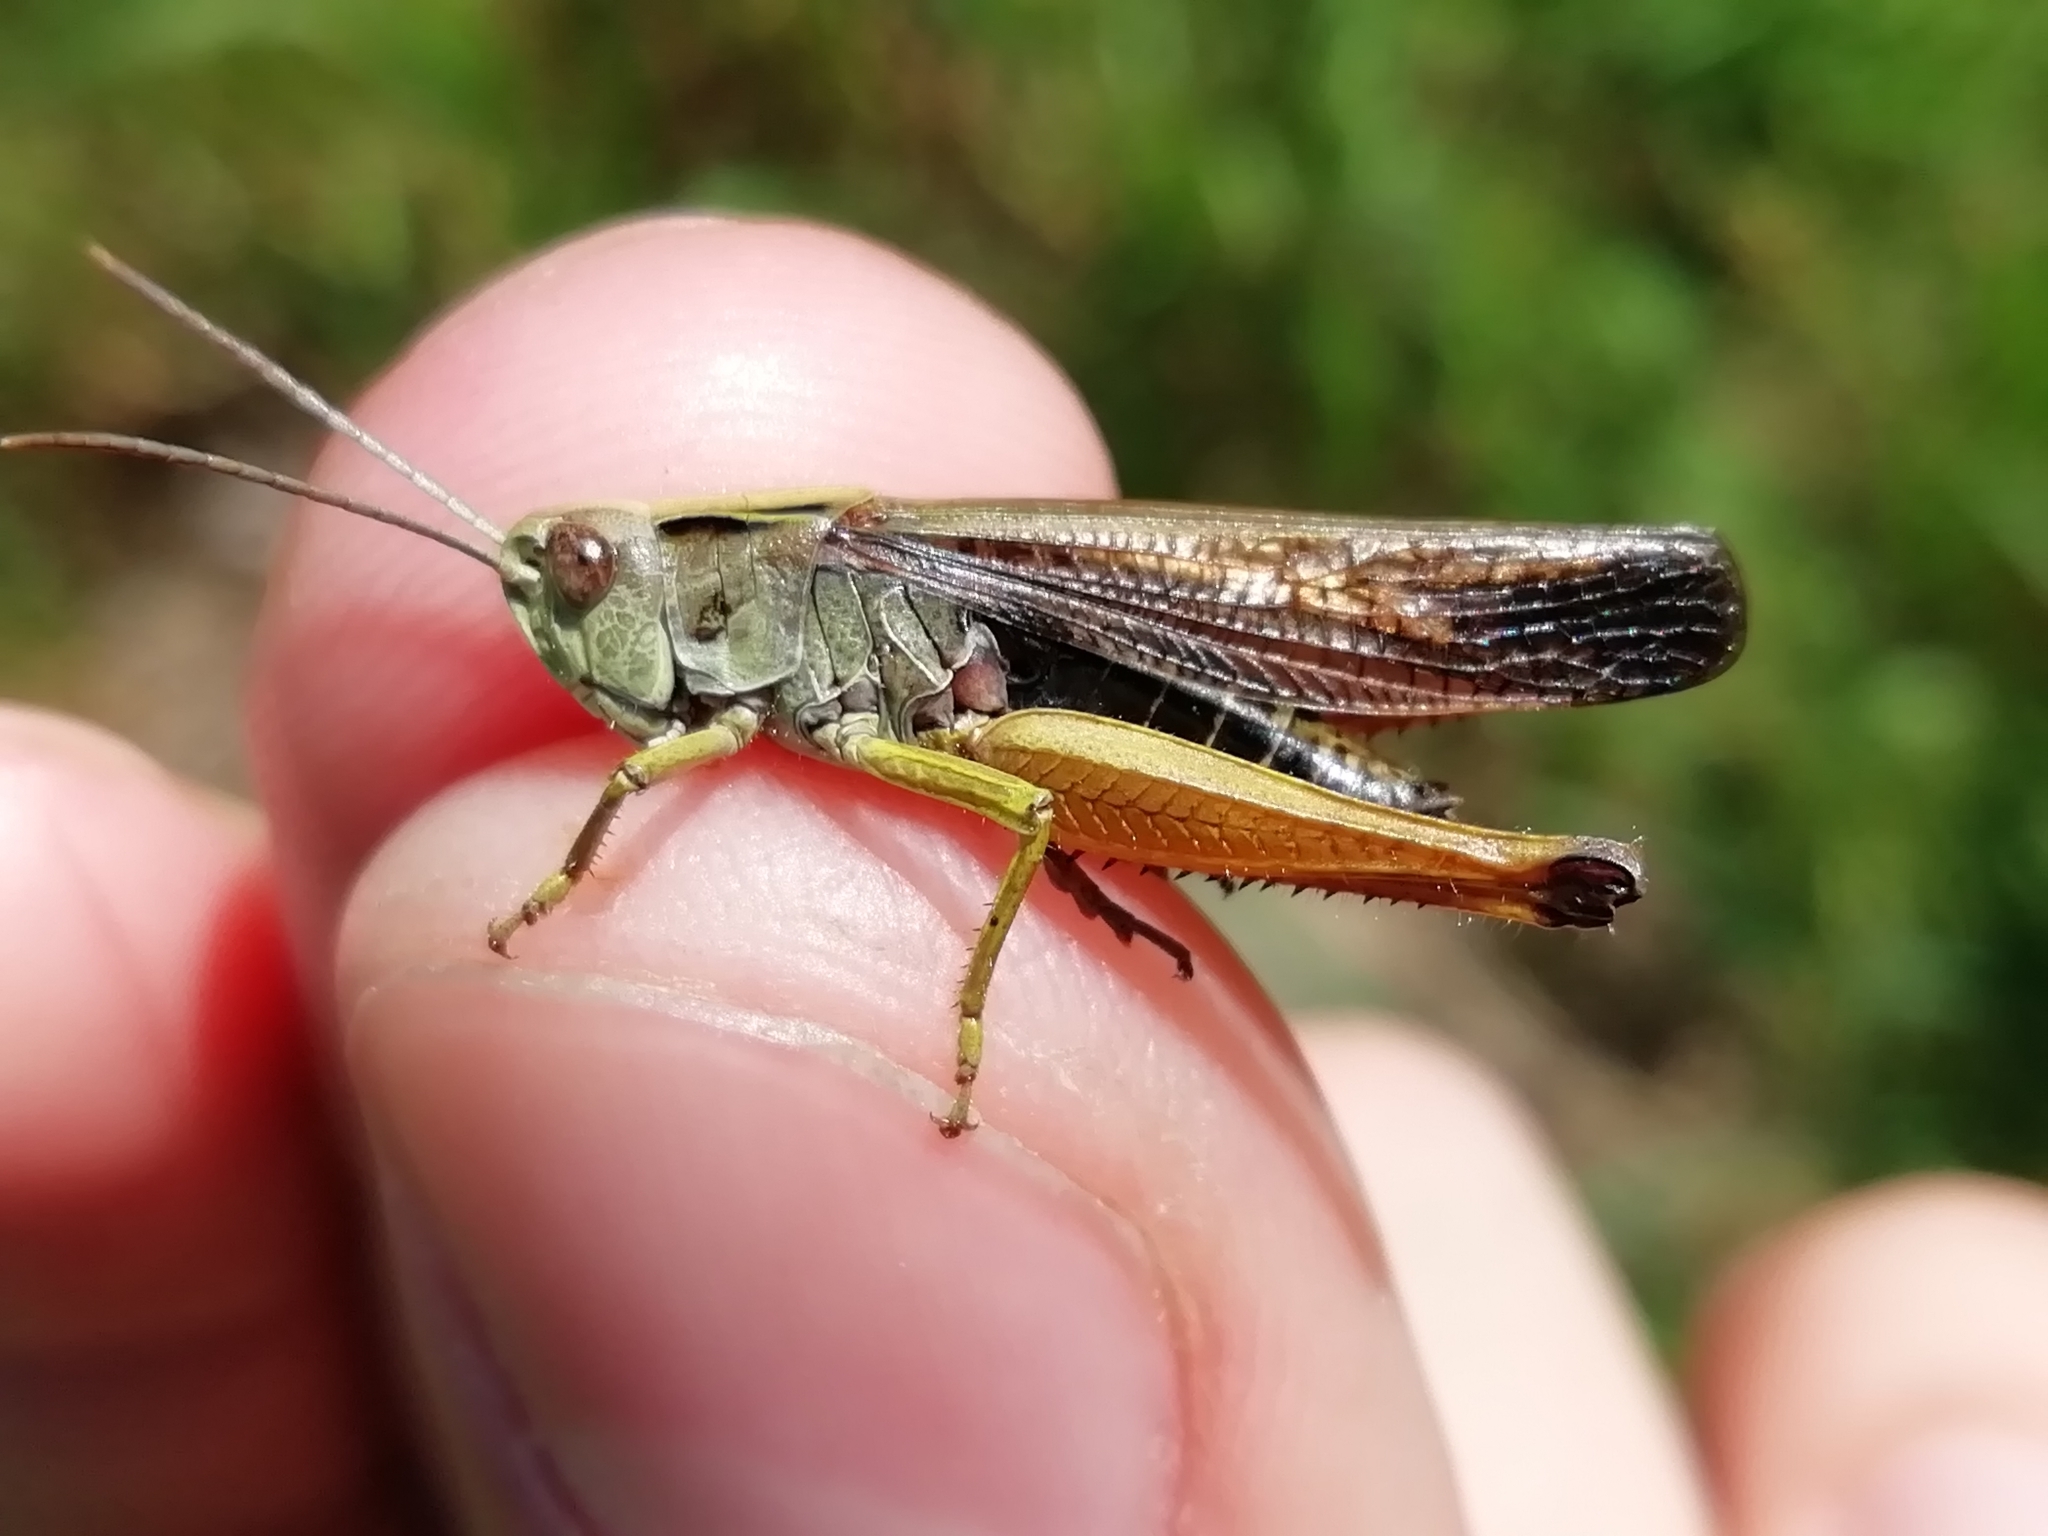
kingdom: Animalia
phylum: Arthropoda
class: Insecta
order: Orthoptera
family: Acrididae
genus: Omocestus
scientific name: Omocestus viridulus
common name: Common green grasshopper
